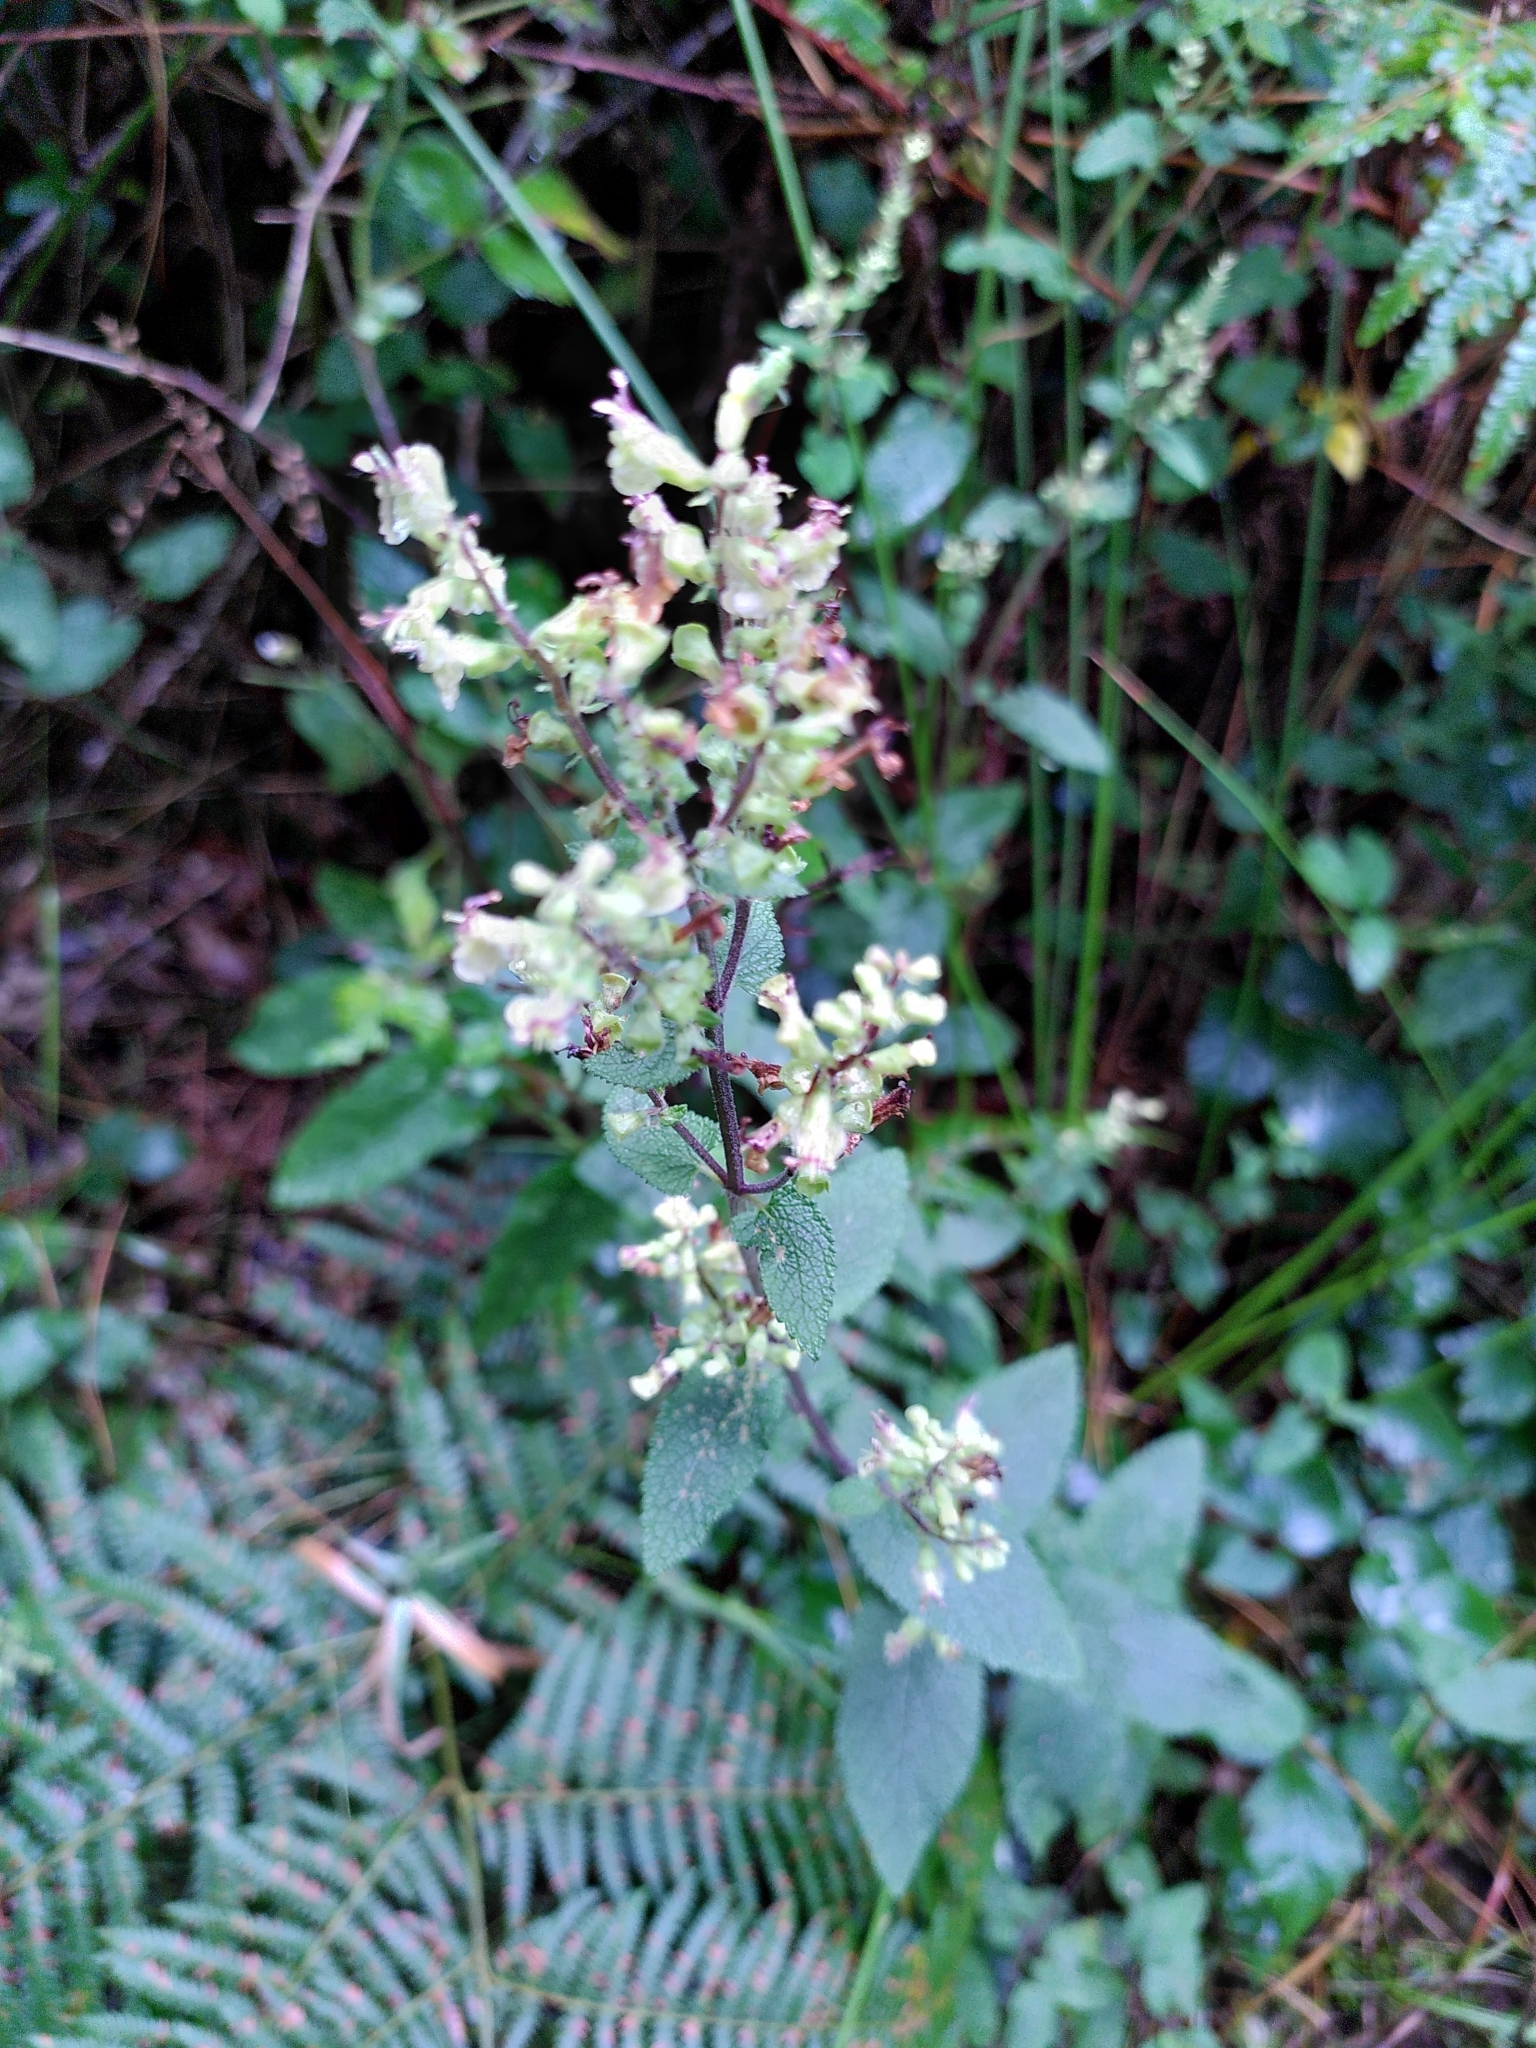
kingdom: Plantae
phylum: Tracheophyta
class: Magnoliopsida
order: Lamiales
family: Lamiaceae
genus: Teucrium
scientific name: Teucrium scorodonia
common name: Woodland germander
